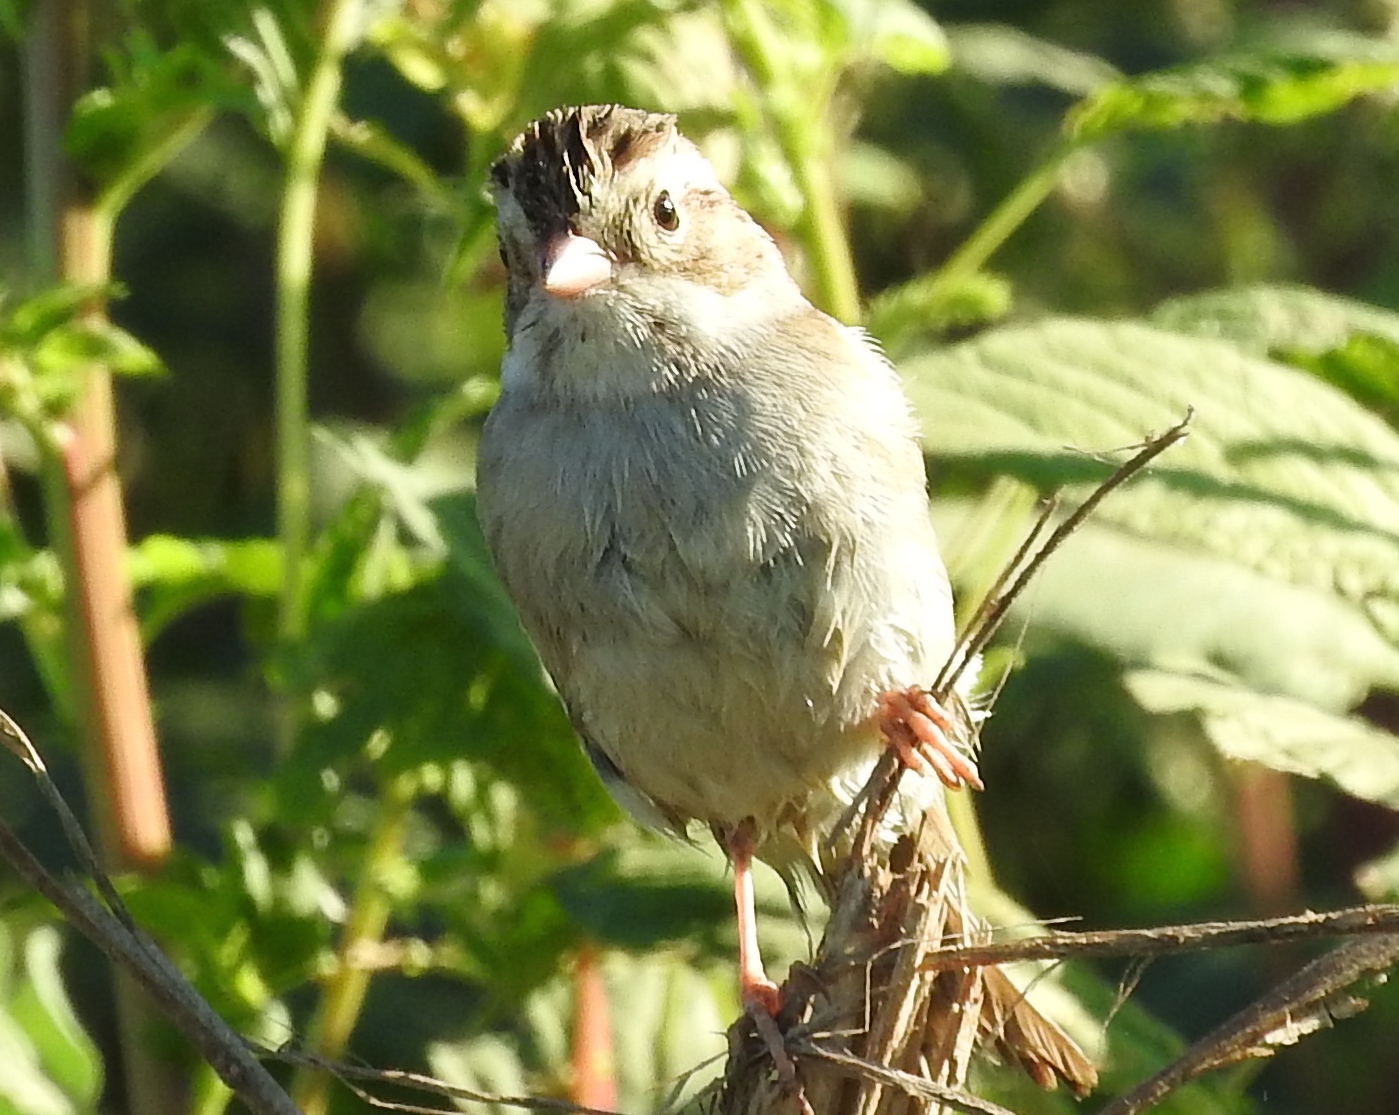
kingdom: Animalia
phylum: Chordata
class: Aves
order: Passeriformes
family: Passerellidae
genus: Spizella
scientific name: Spizella
